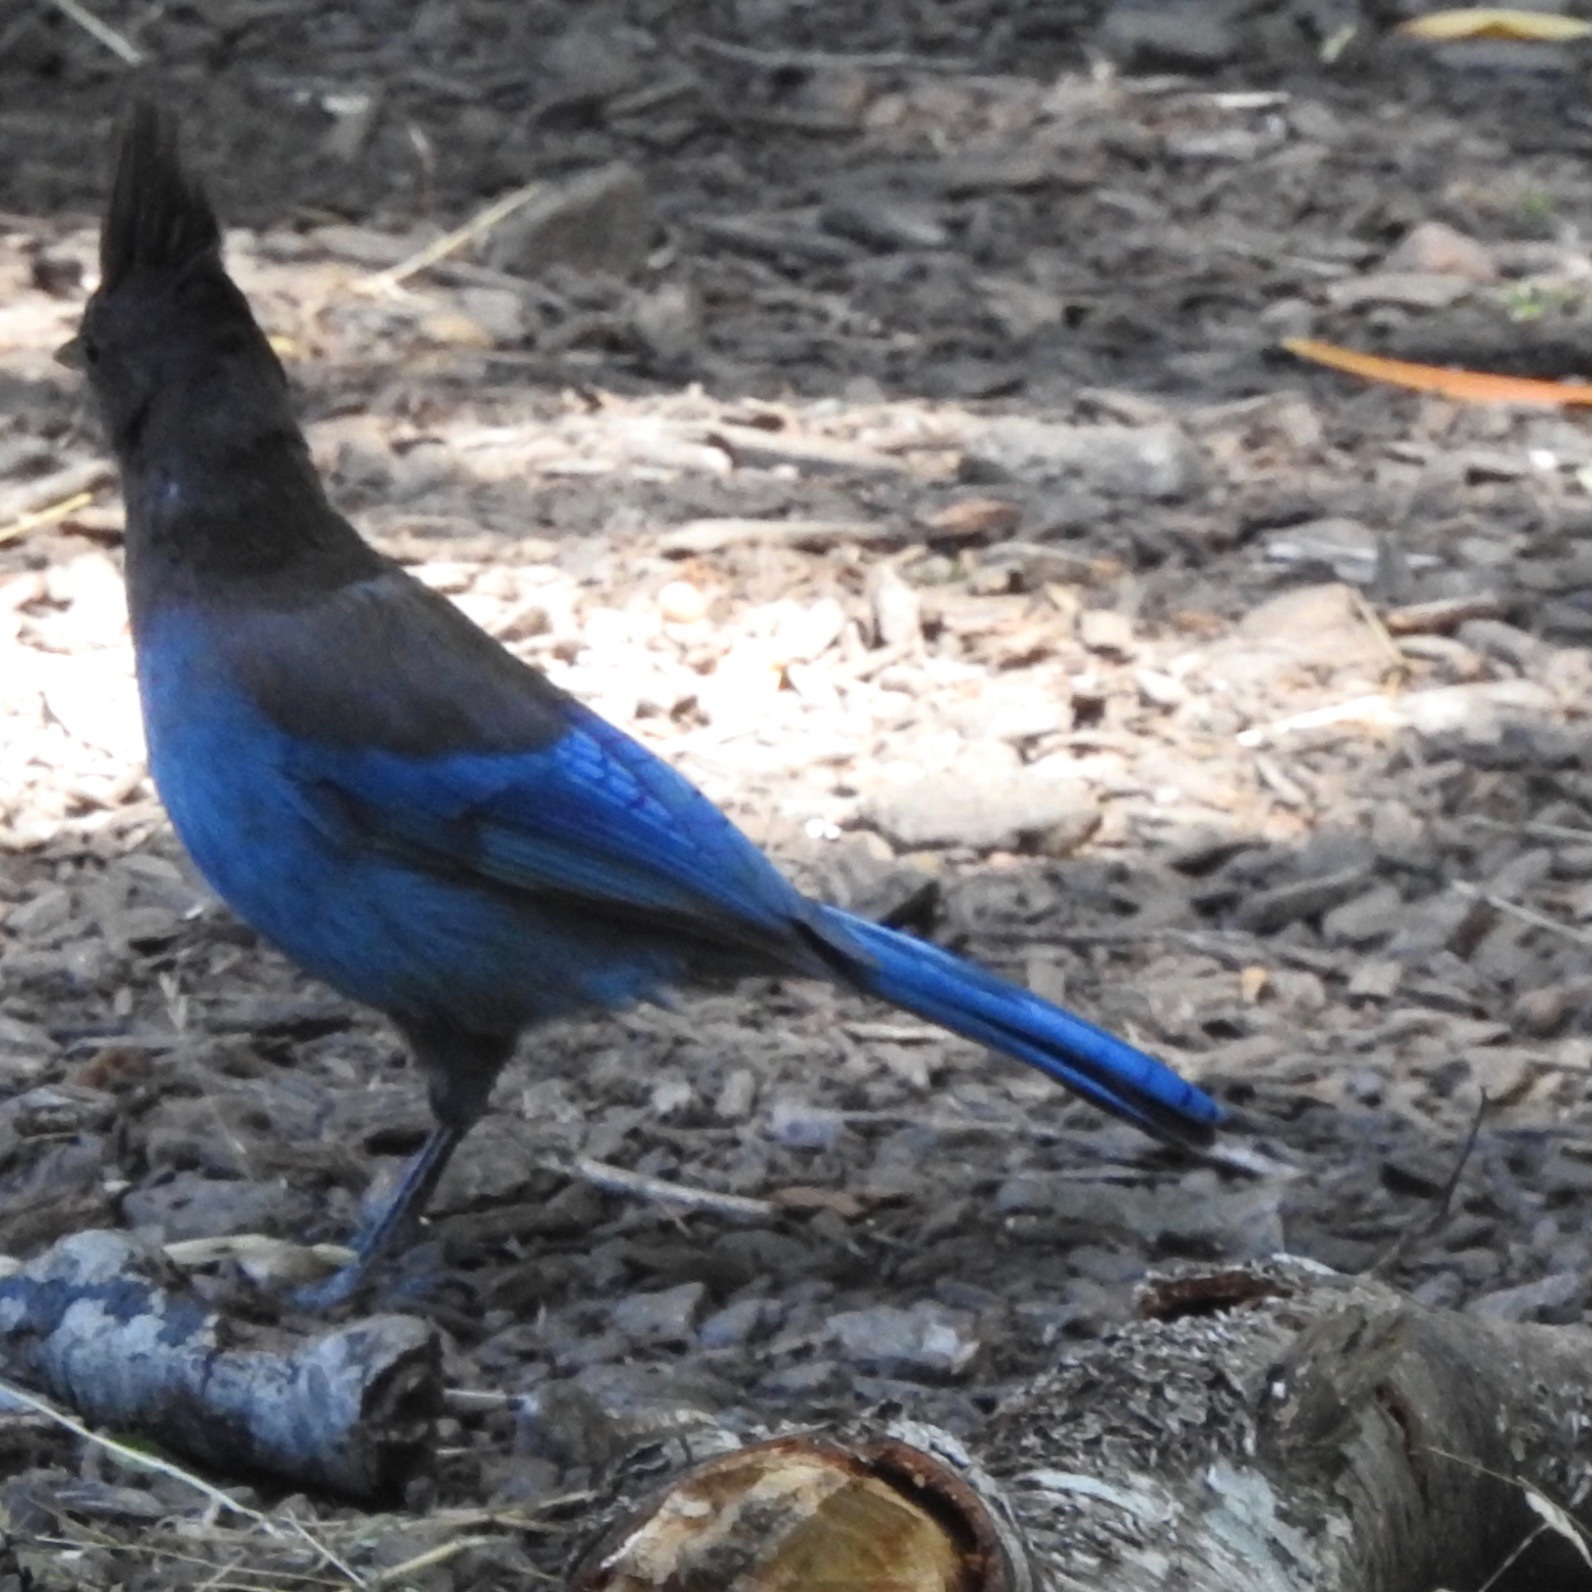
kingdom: Animalia
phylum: Chordata
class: Aves
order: Passeriformes
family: Corvidae
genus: Cyanocitta
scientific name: Cyanocitta stelleri
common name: Steller's jay
